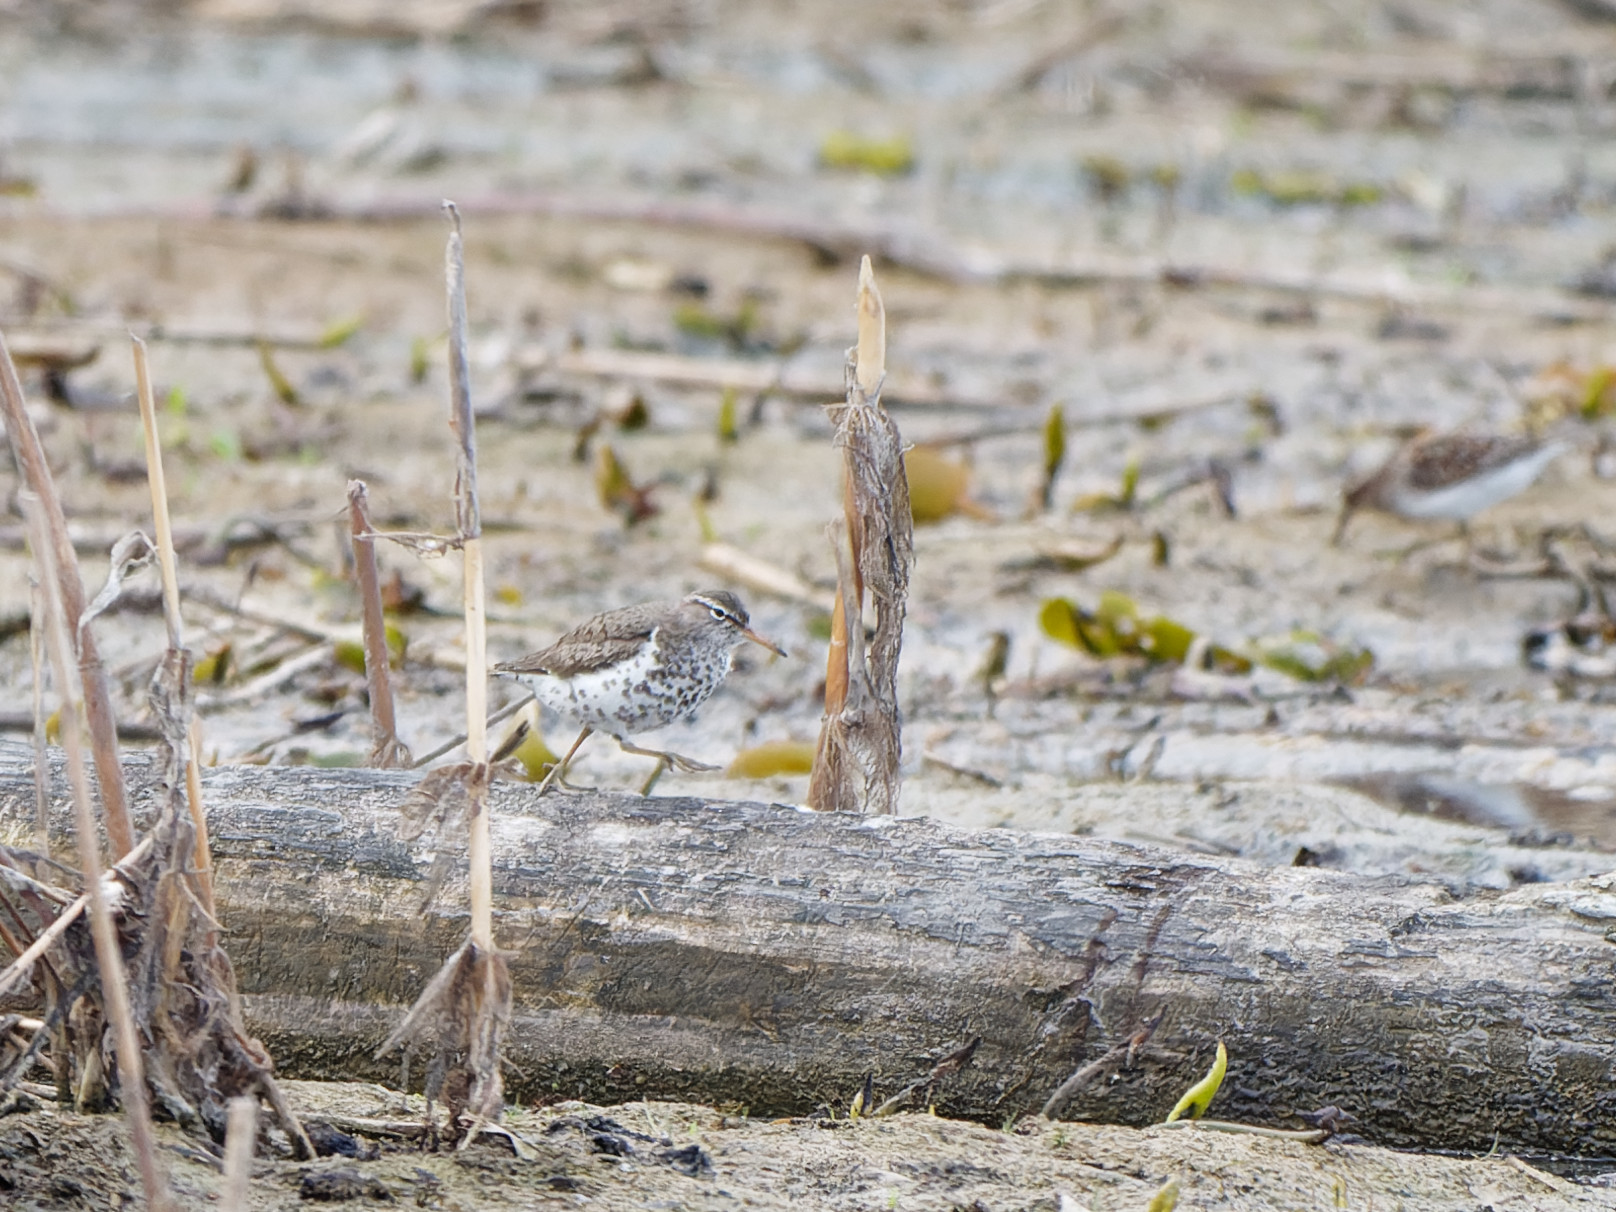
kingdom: Animalia
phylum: Chordata
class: Aves
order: Charadriiformes
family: Scolopacidae
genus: Actitis
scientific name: Actitis macularius
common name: Spotted sandpiper
